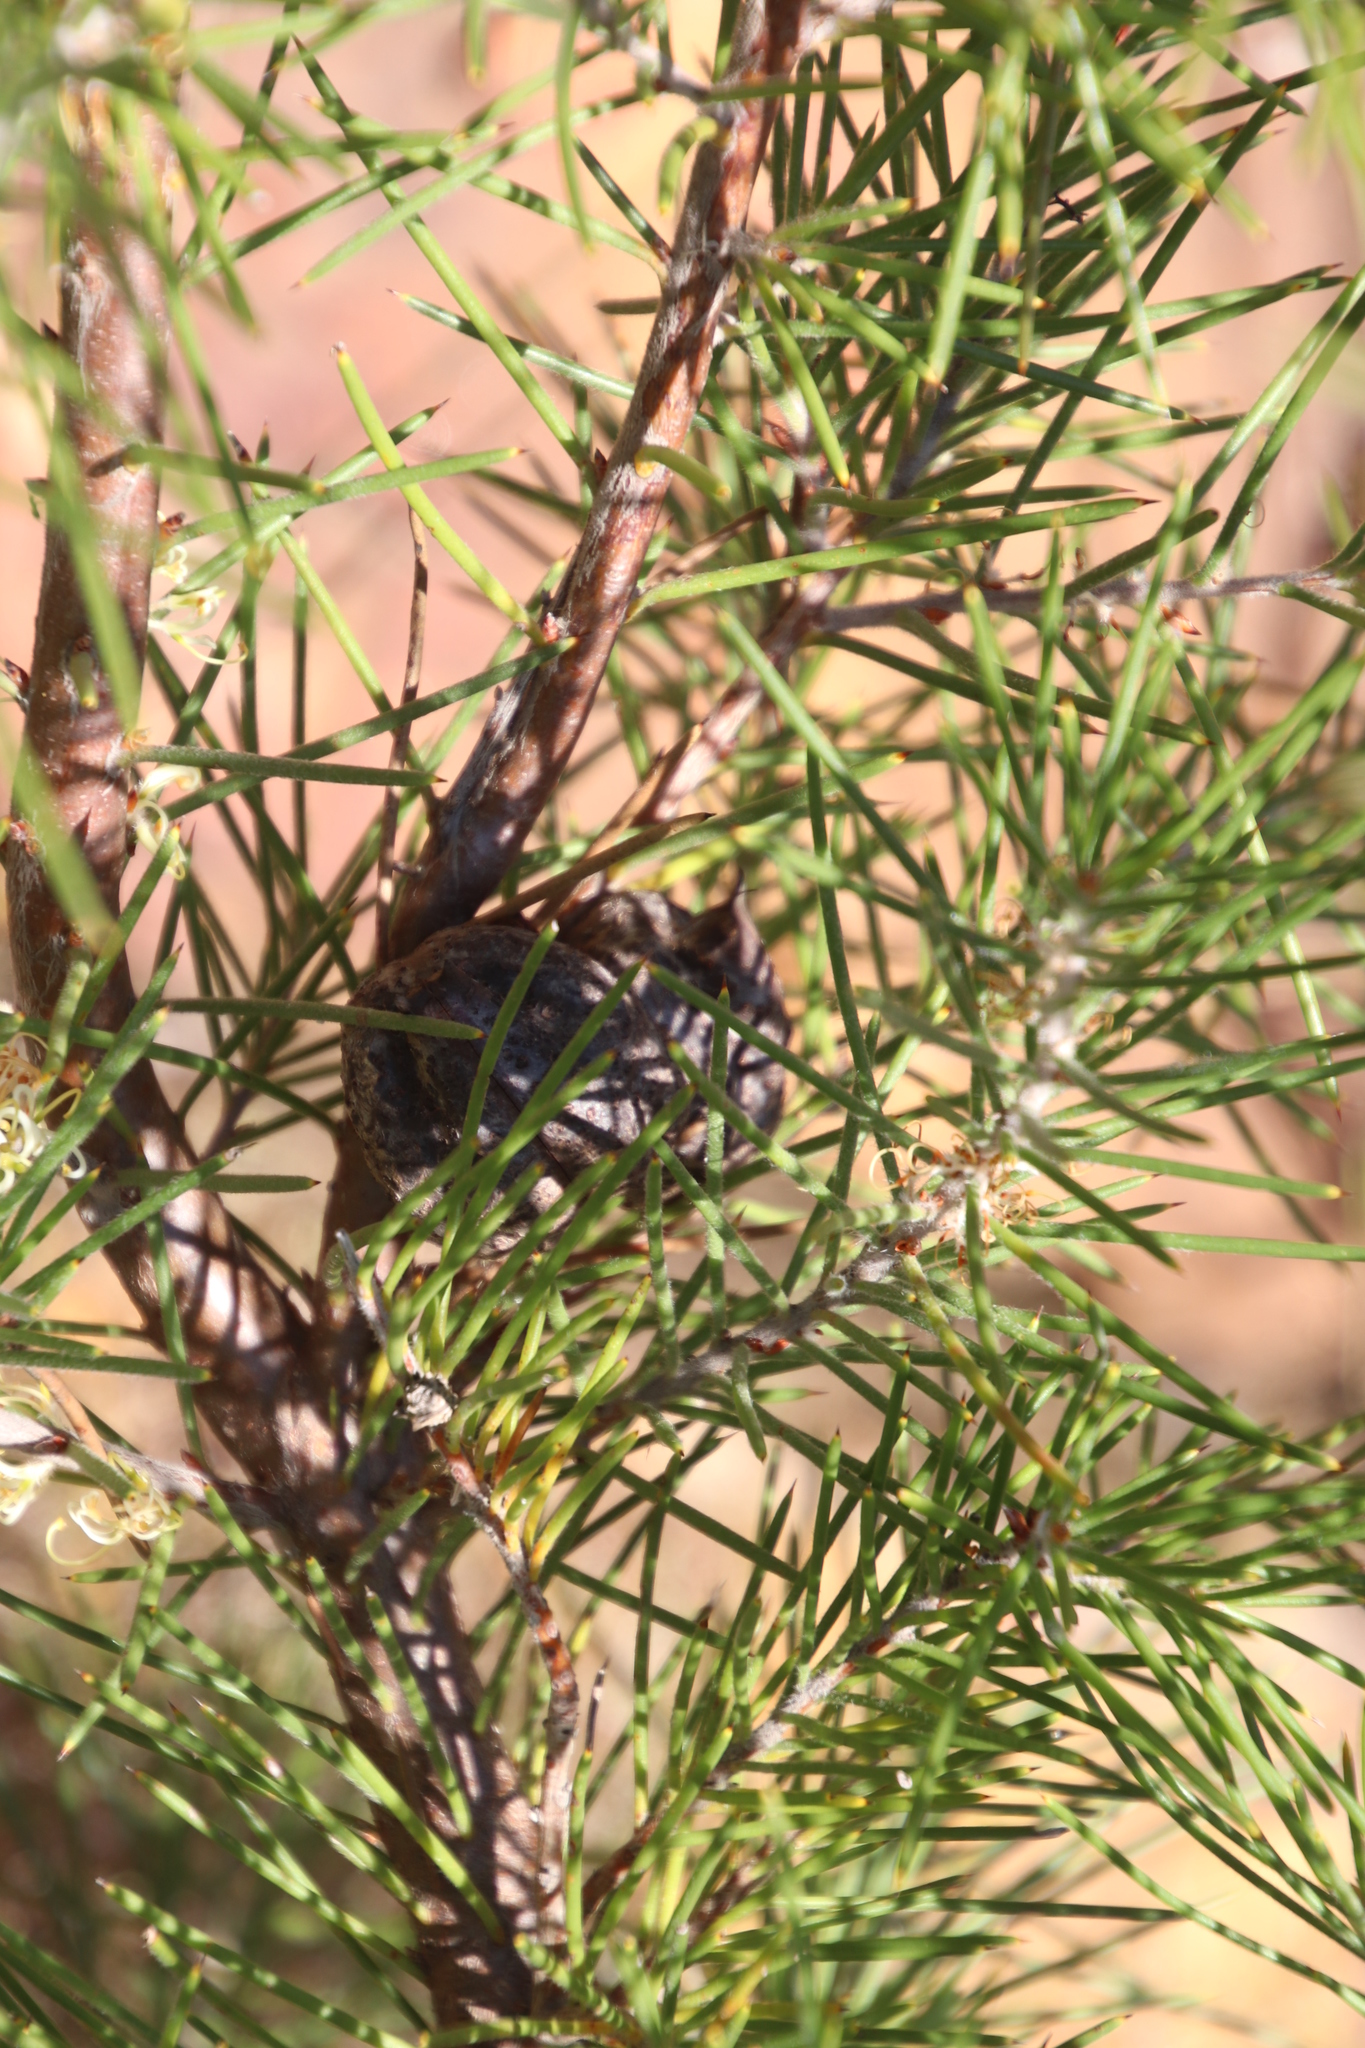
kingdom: Plantae
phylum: Tracheophyta
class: Magnoliopsida
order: Proteales
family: Proteaceae
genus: Hakea
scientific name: Hakea gibbosa
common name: Rock hakea
